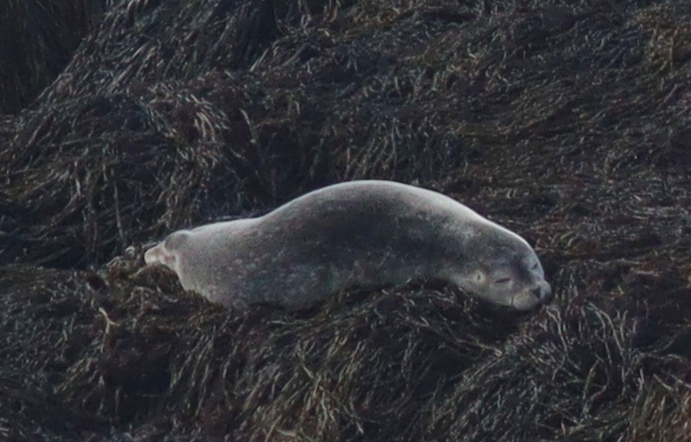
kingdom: Animalia
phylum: Chordata
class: Mammalia
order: Carnivora
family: Phocidae
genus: Phoca
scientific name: Phoca vitulina
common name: Harbor seal
